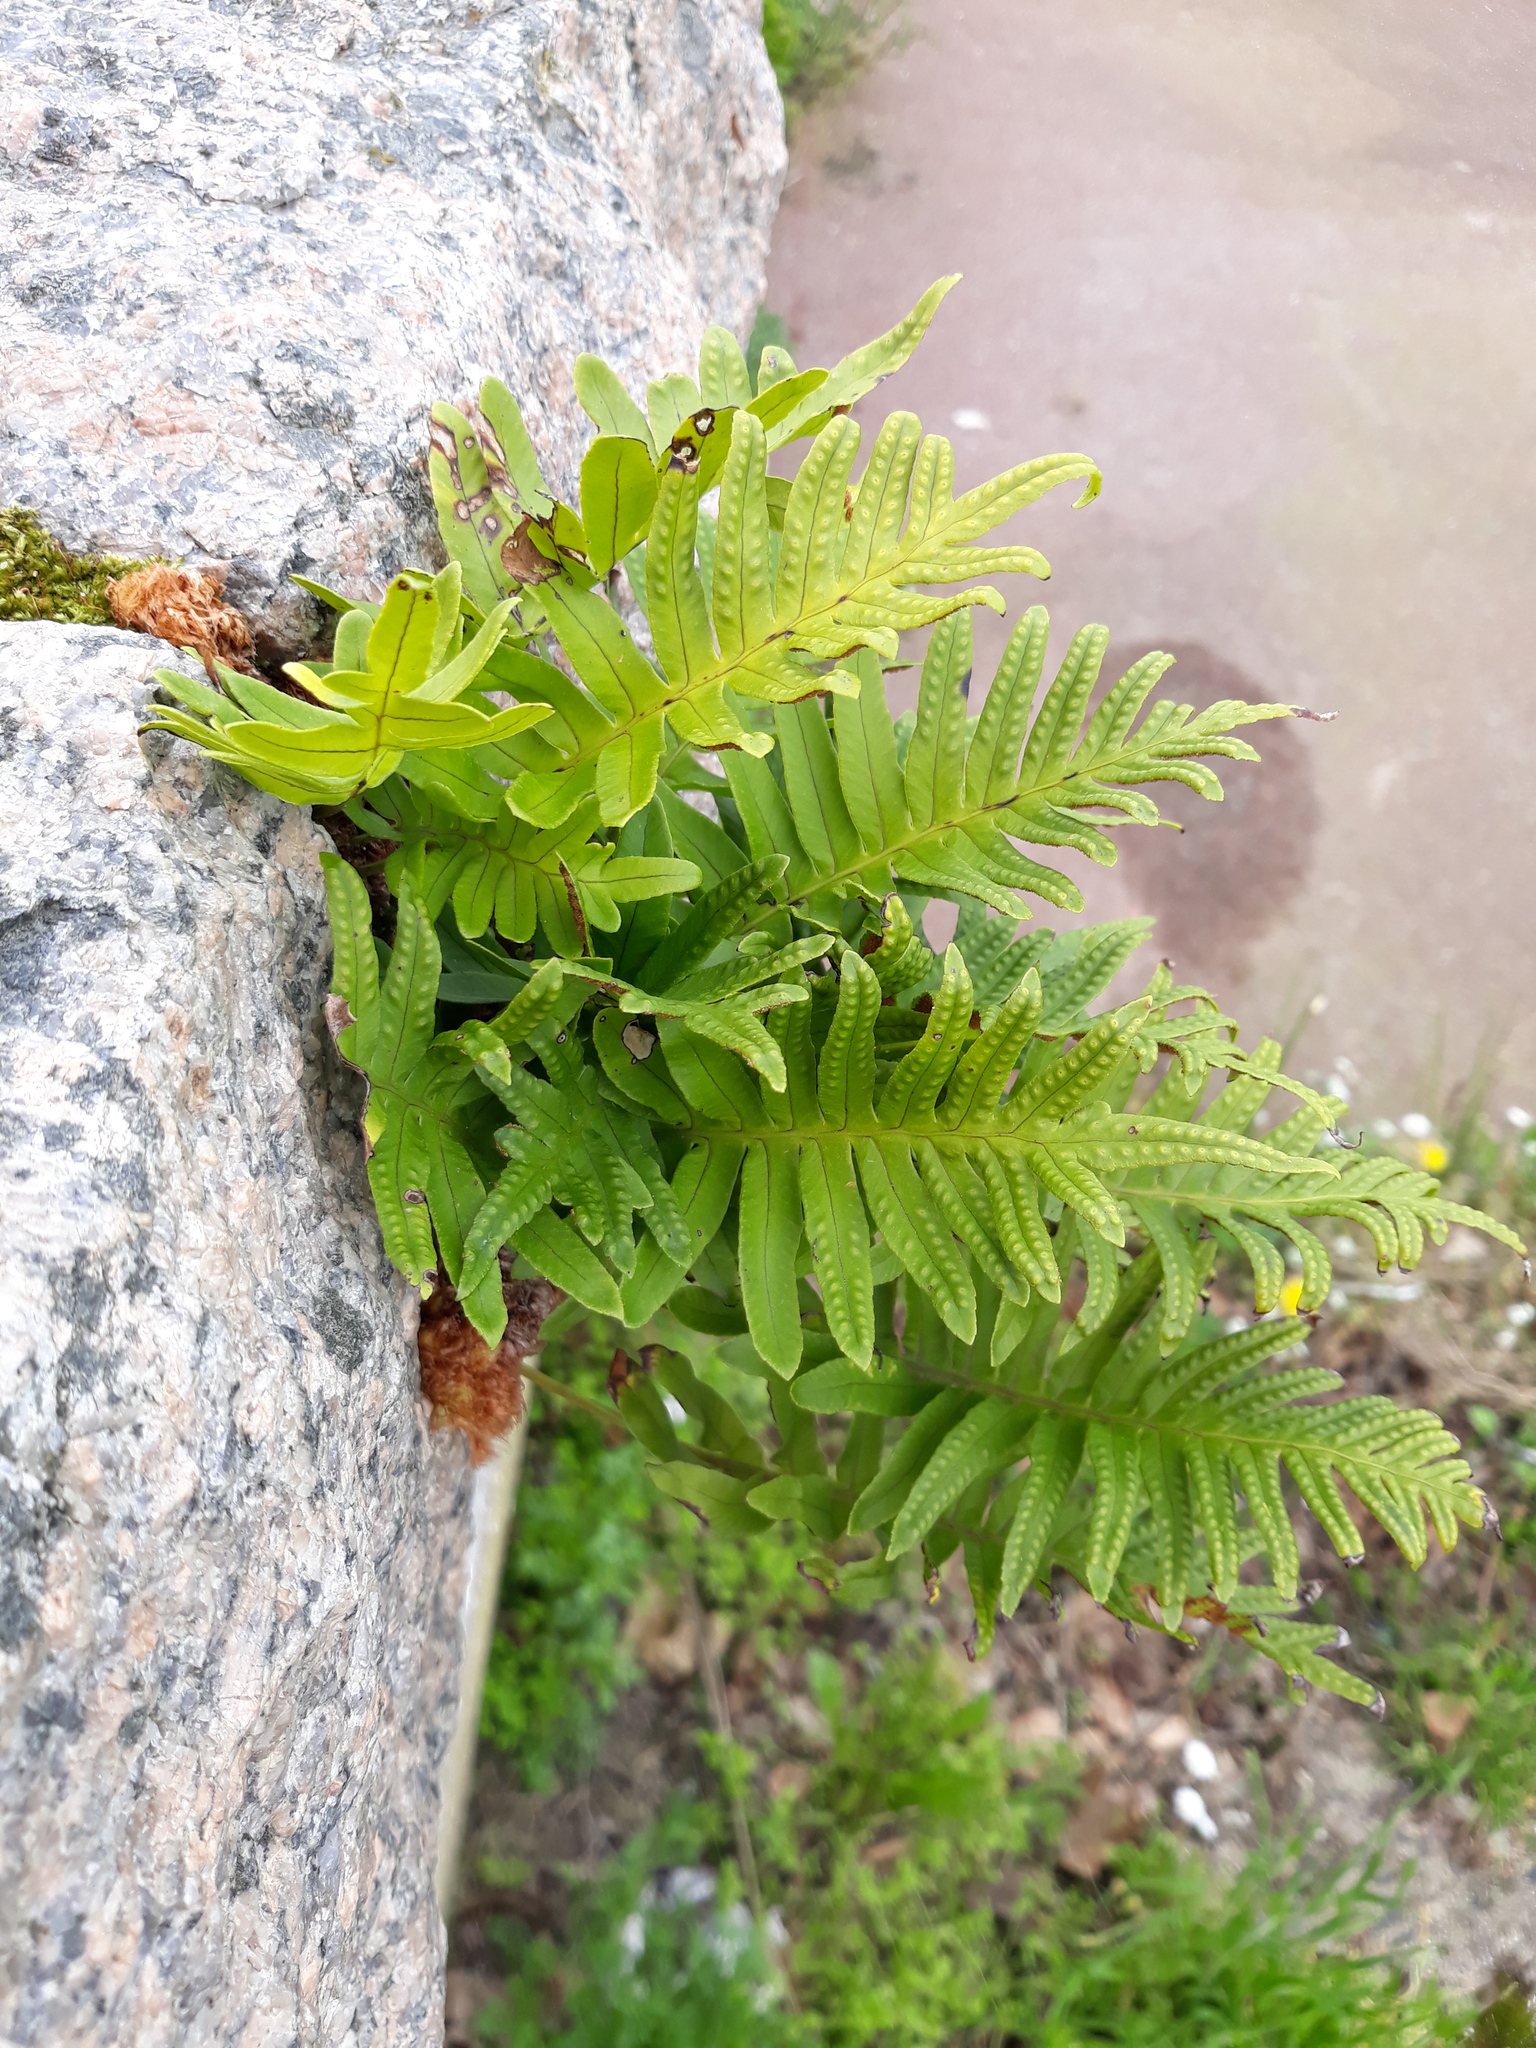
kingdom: Plantae
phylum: Tracheophyta
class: Polypodiopsida
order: Polypodiales
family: Polypodiaceae
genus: Polypodium
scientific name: Polypodium vulgare
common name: Common polypody
